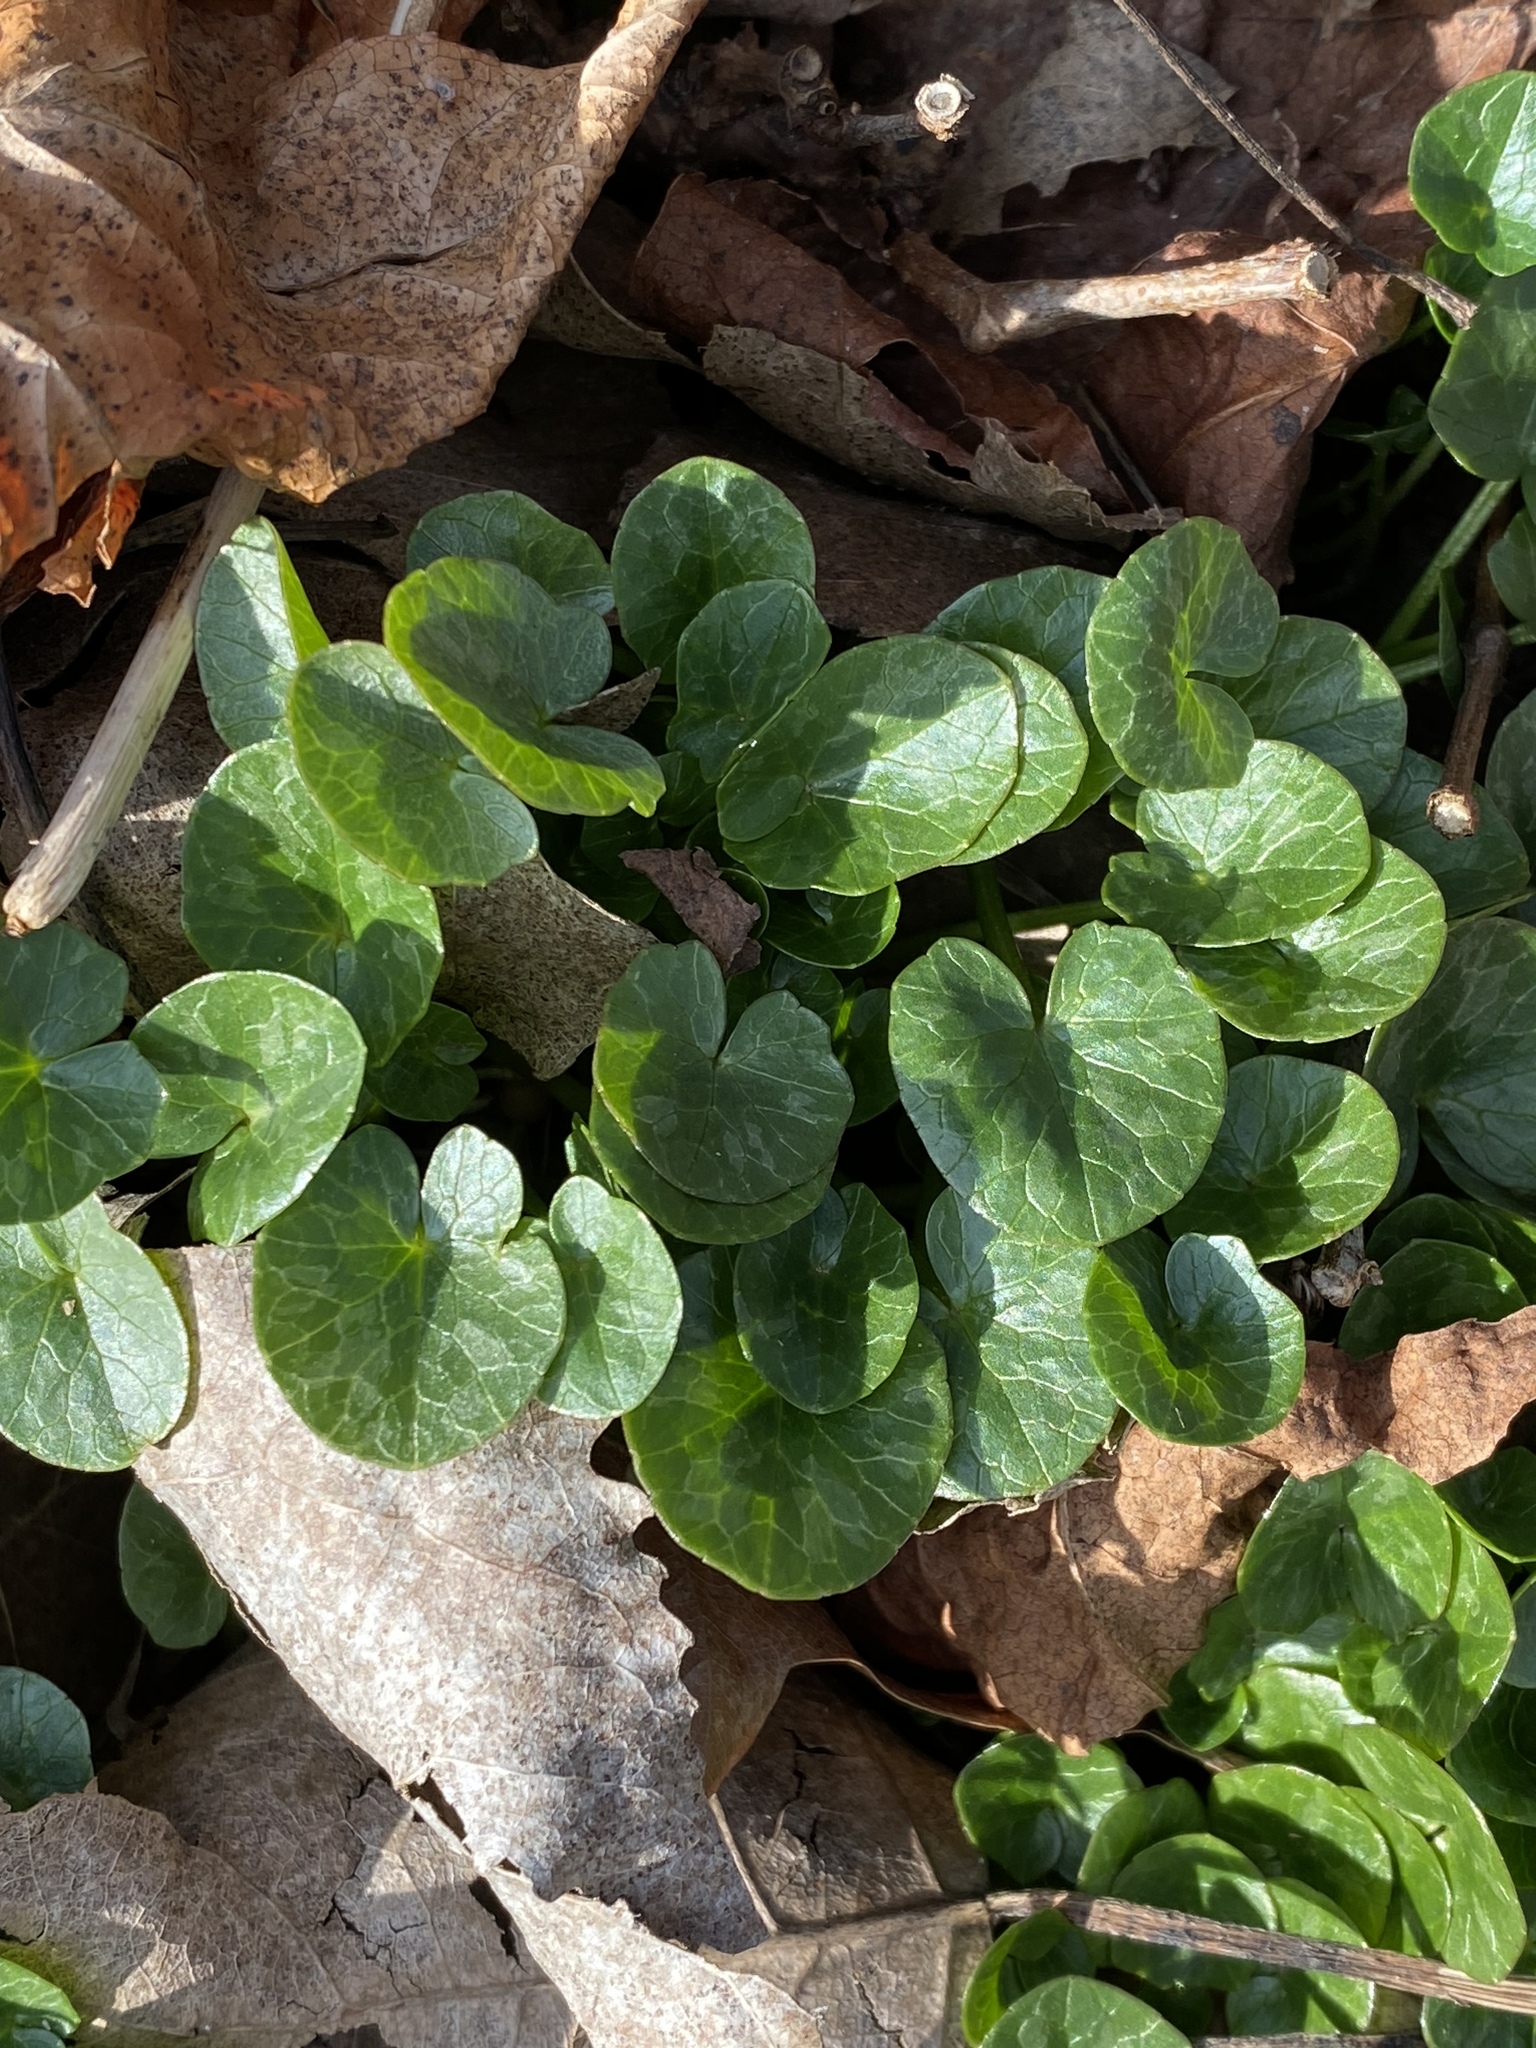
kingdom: Plantae
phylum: Tracheophyta
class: Magnoliopsida
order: Ranunculales
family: Ranunculaceae
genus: Ficaria
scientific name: Ficaria verna
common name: Lesser celandine
